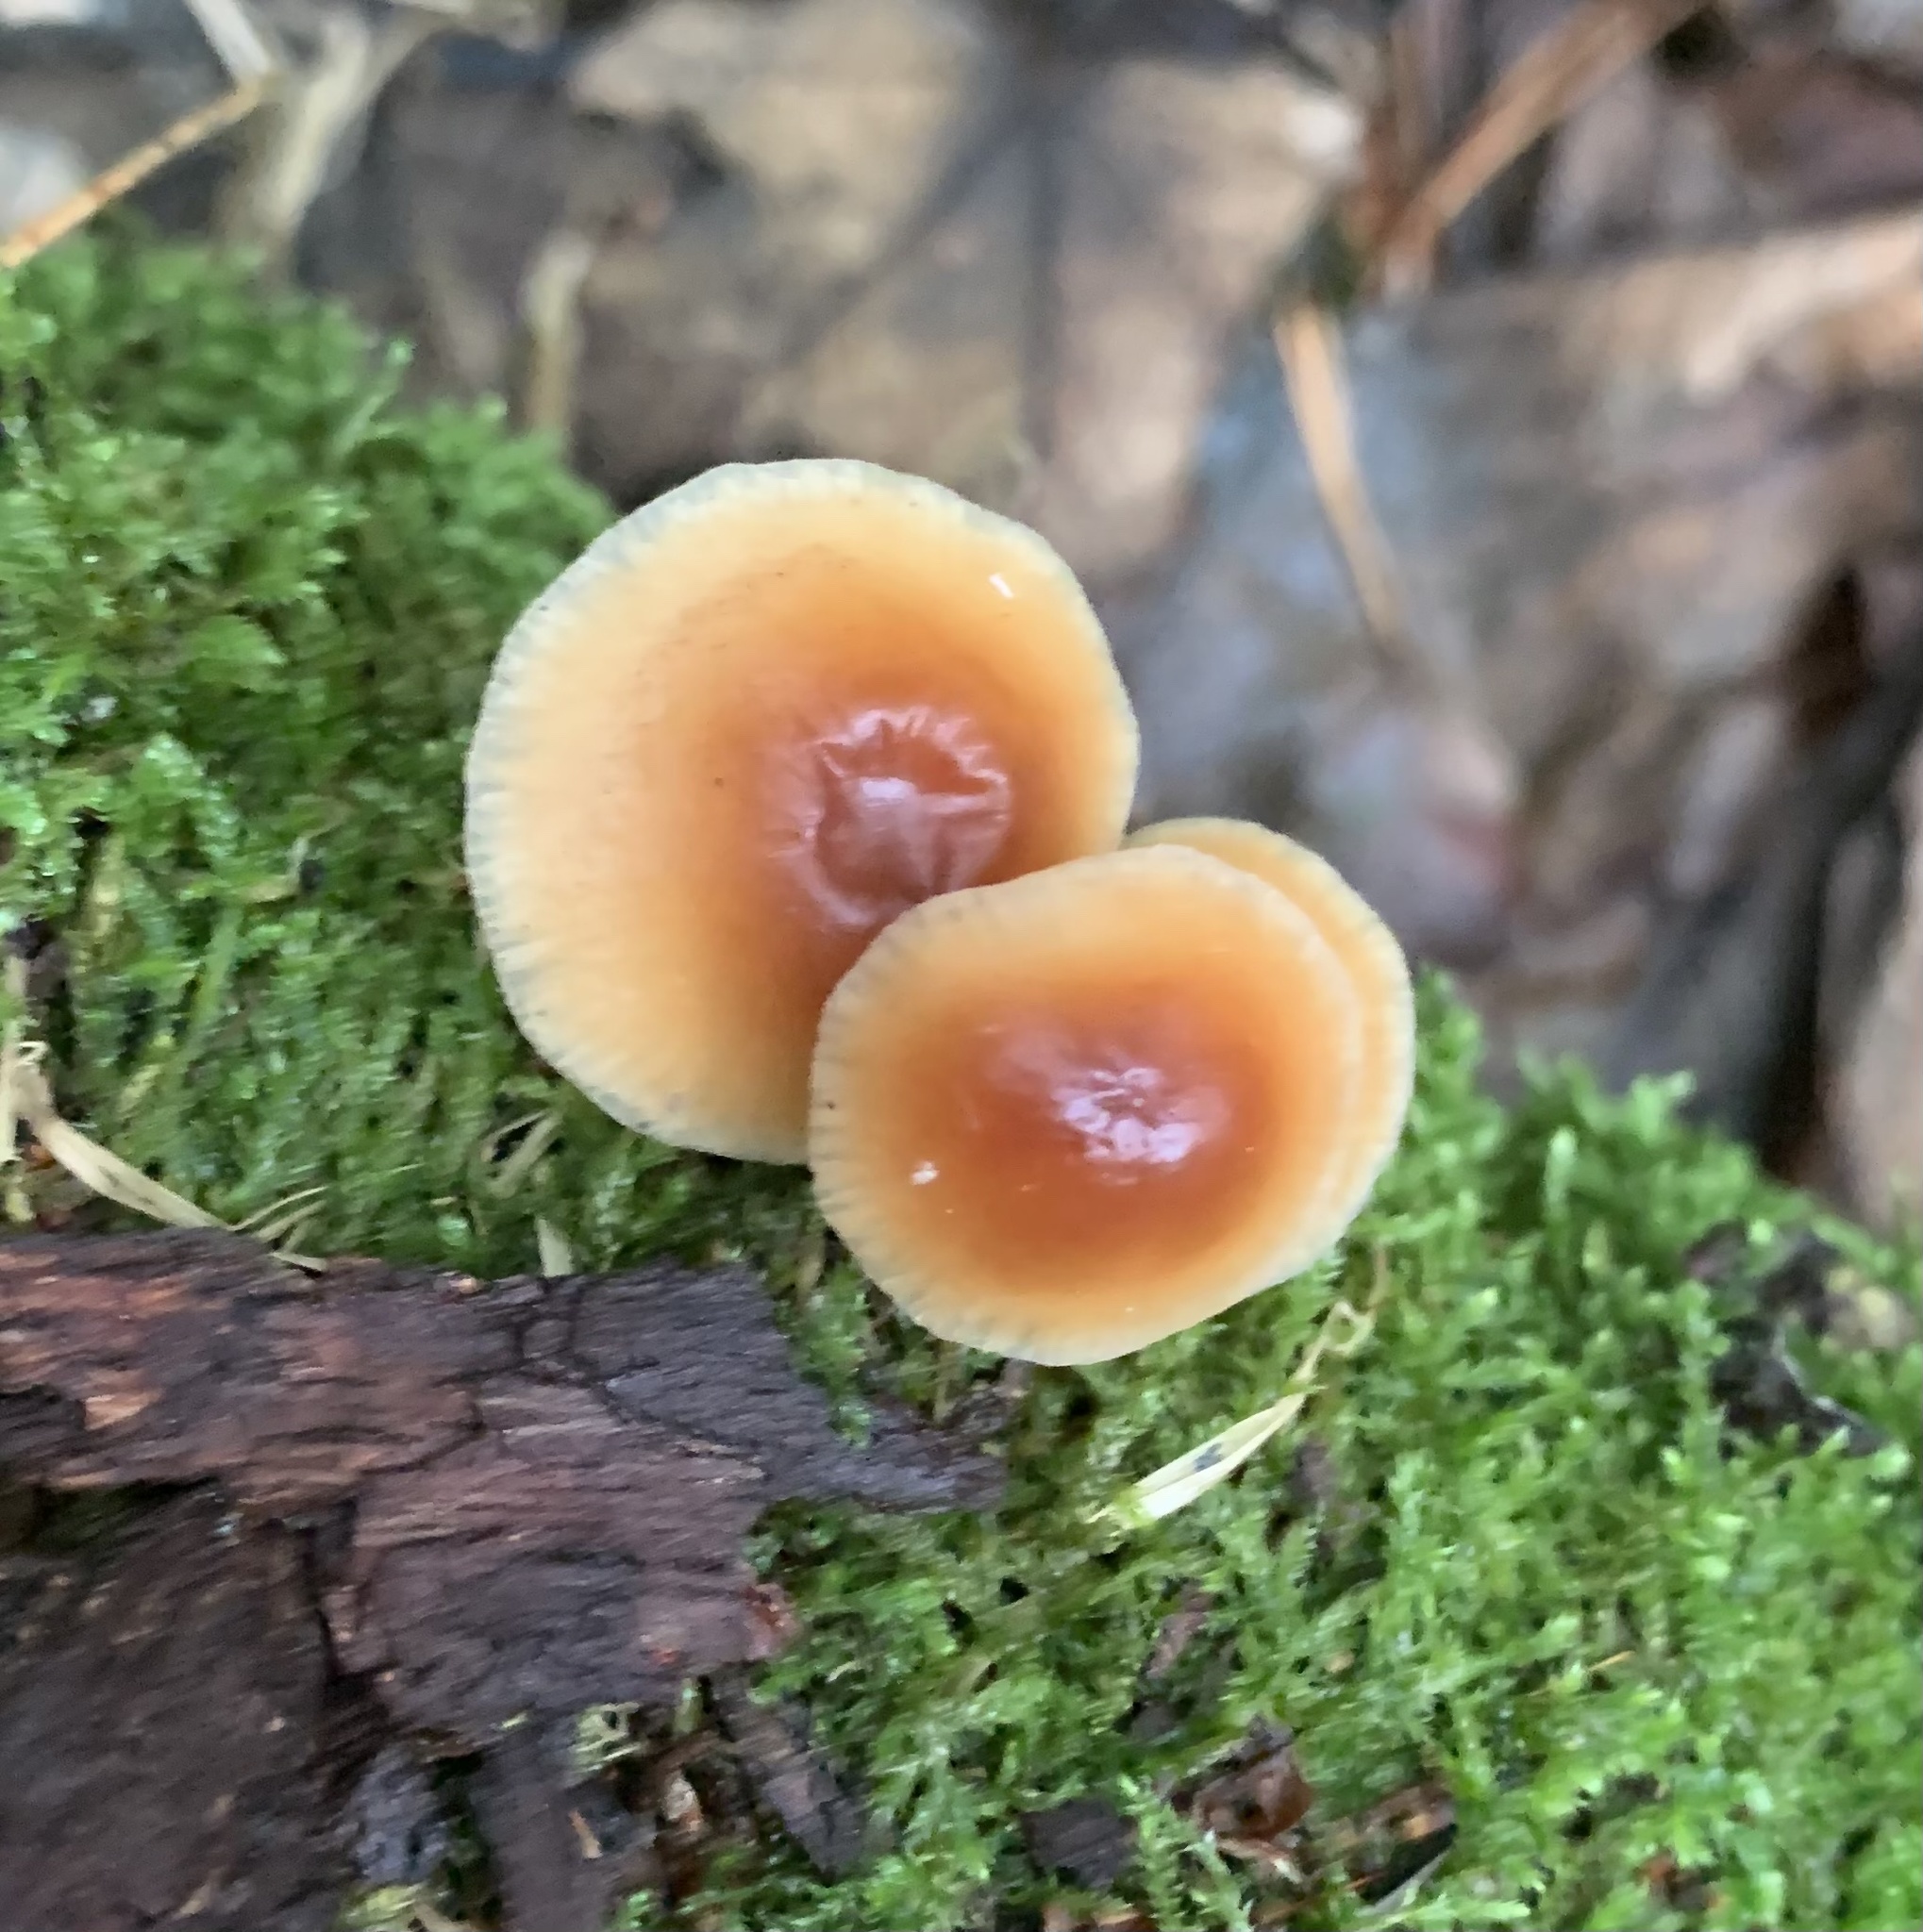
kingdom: Fungi
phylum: Basidiomycota
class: Agaricomycetes
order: Agaricales
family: Omphalotaceae
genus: Gymnopus
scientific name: Gymnopus dryophilus
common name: Penny top
